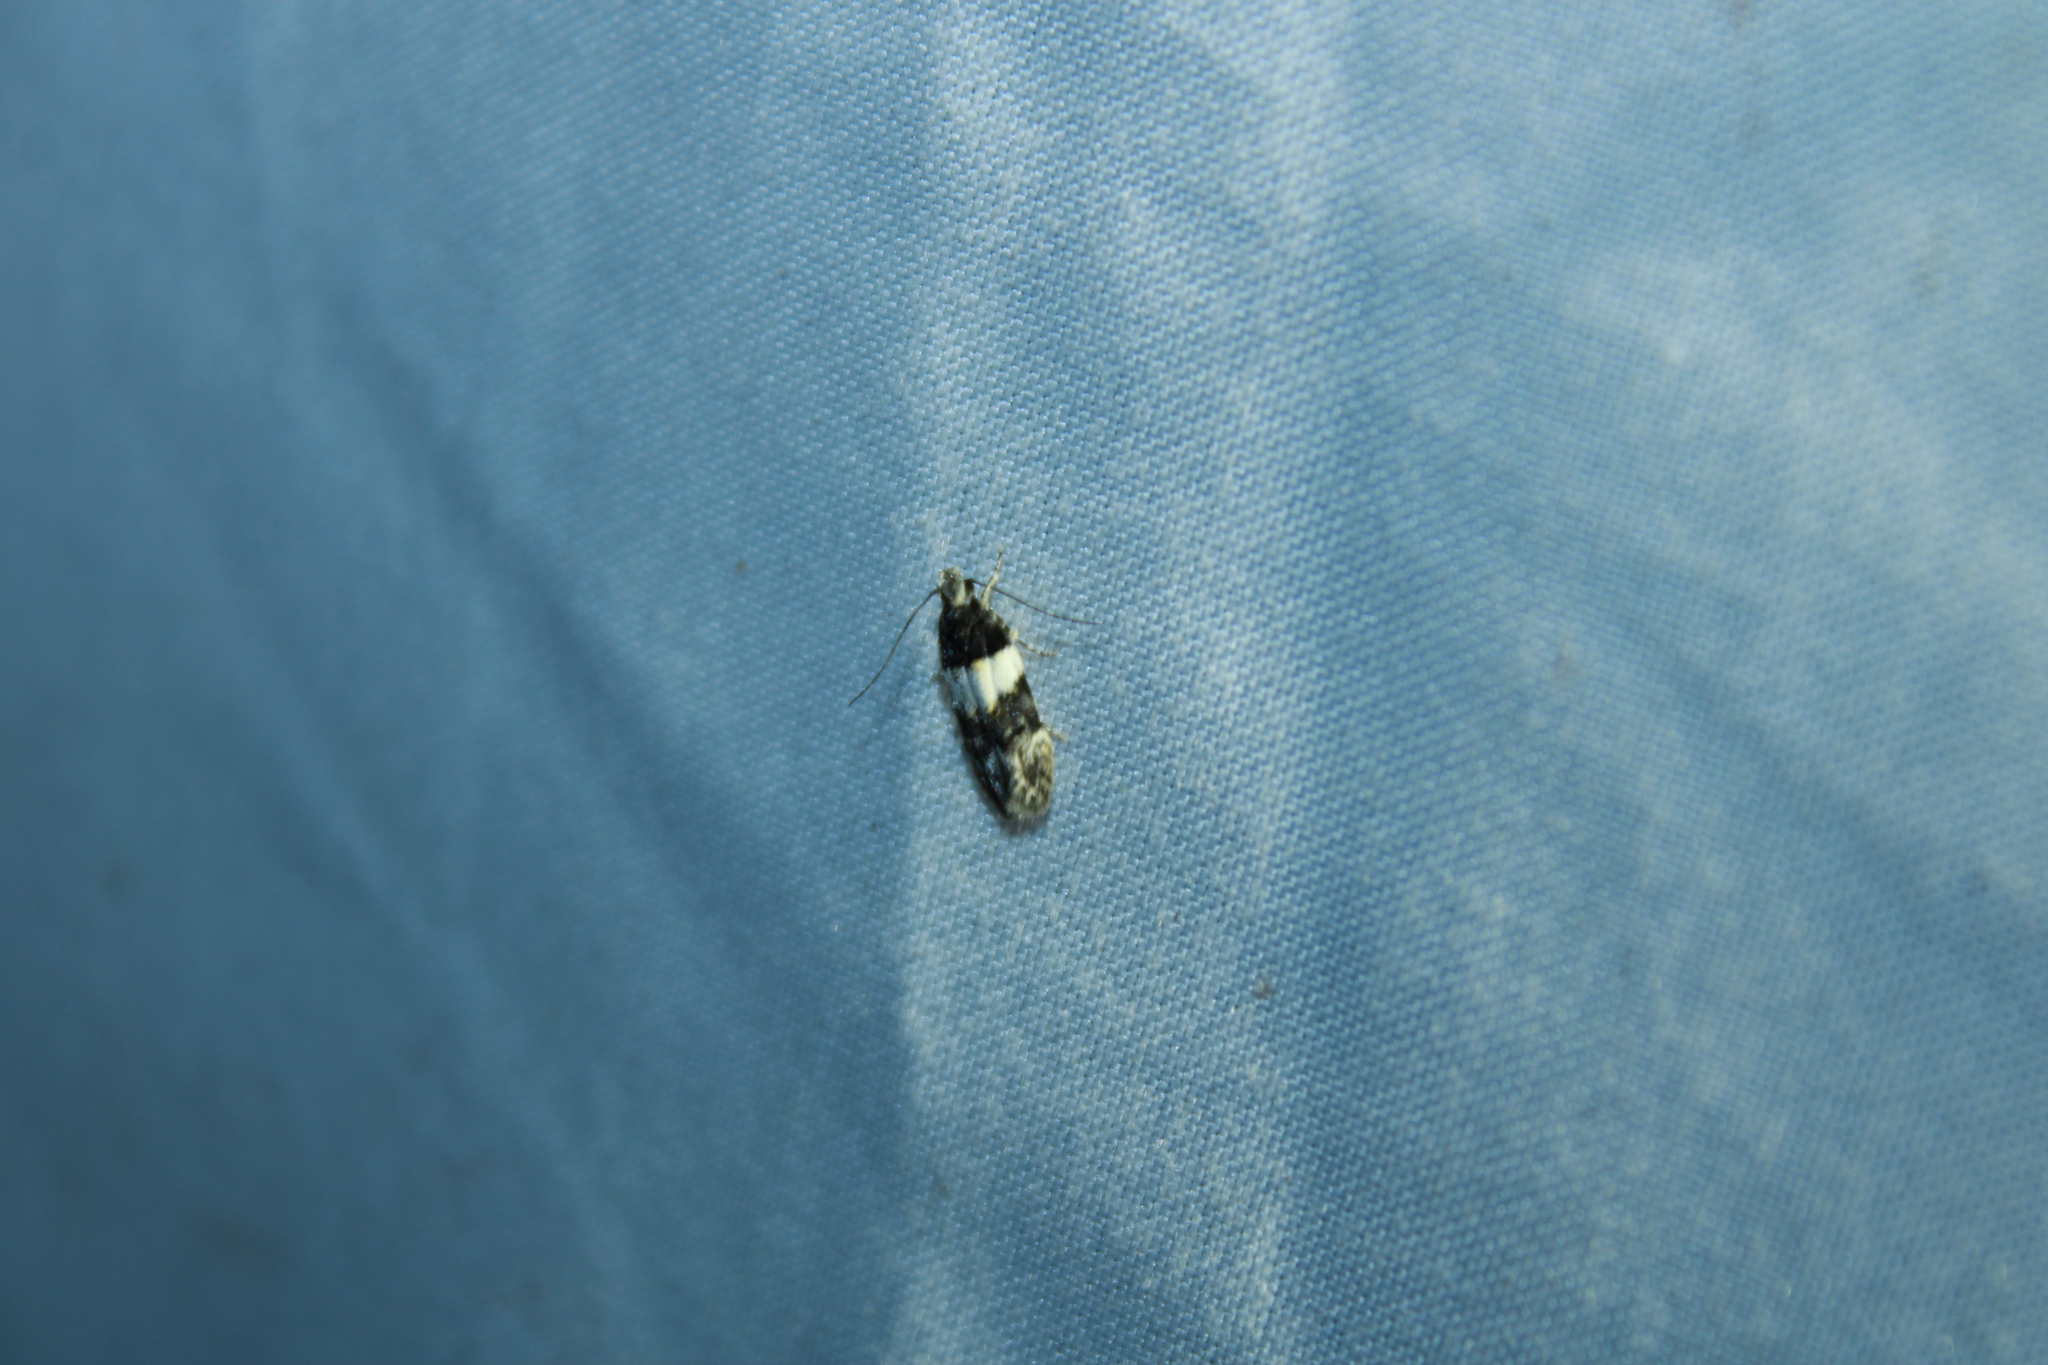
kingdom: Animalia
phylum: Arthropoda
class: Insecta
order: Lepidoptera
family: Gelechiidae
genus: Pubitelphusa
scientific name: Pubitelphusa latifasciella
